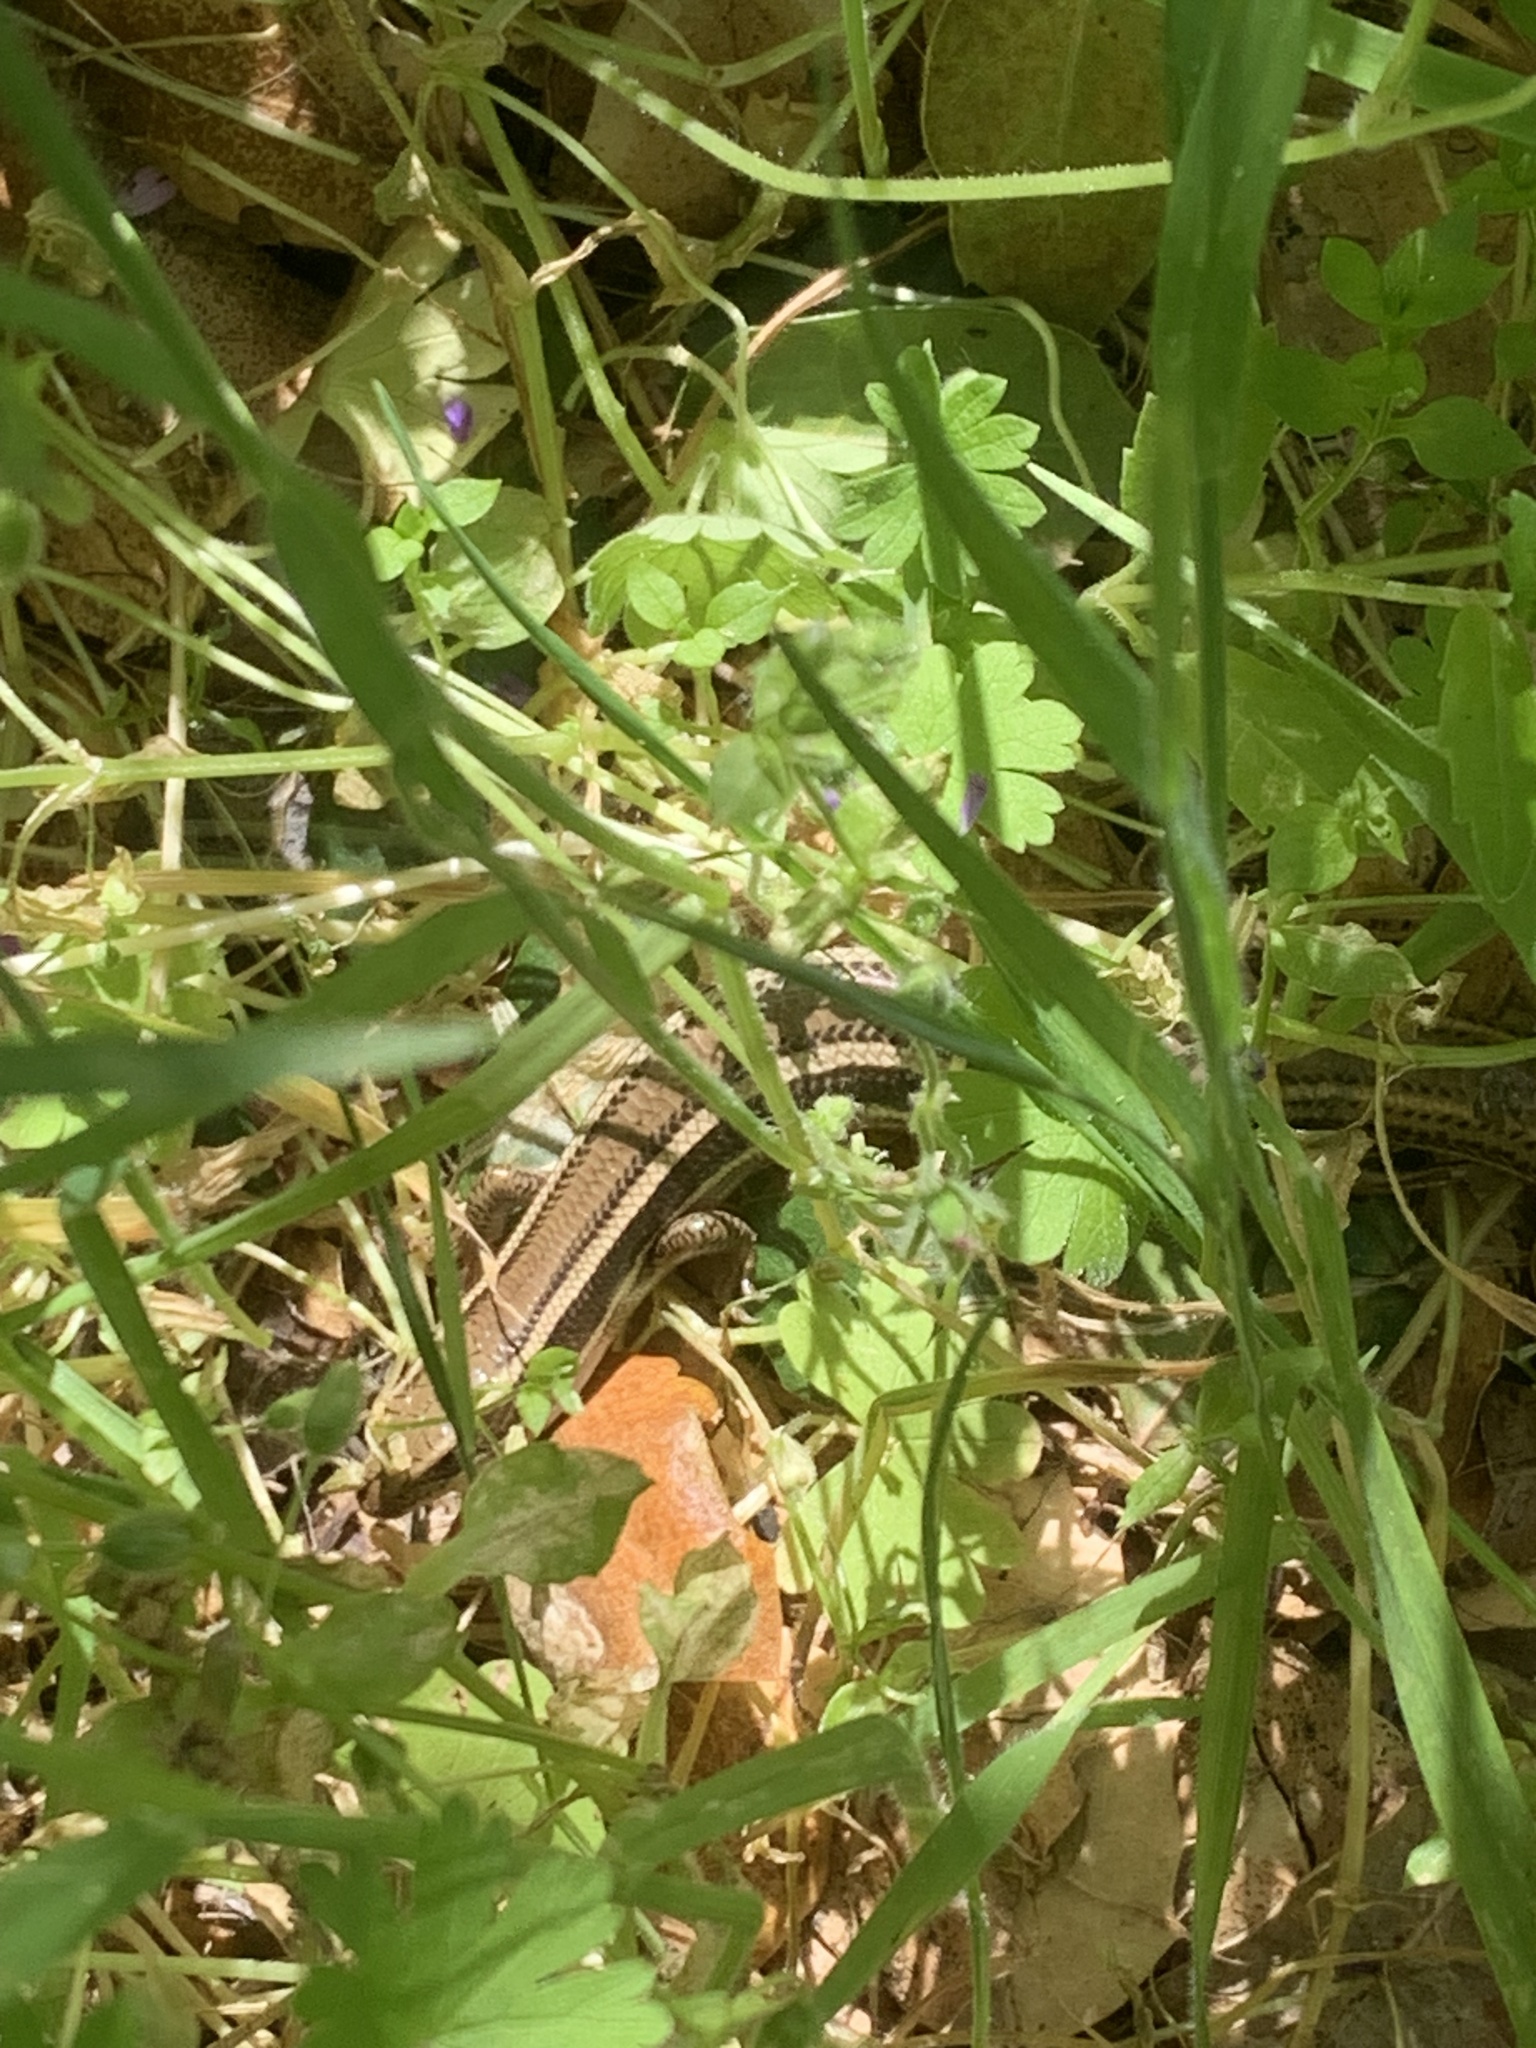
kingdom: Animalia
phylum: Chordata
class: Squamata
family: Scincidae
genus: Plestiodon
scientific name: Plestiodon skiltonianus
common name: Coronado island skink [interparietalis]
